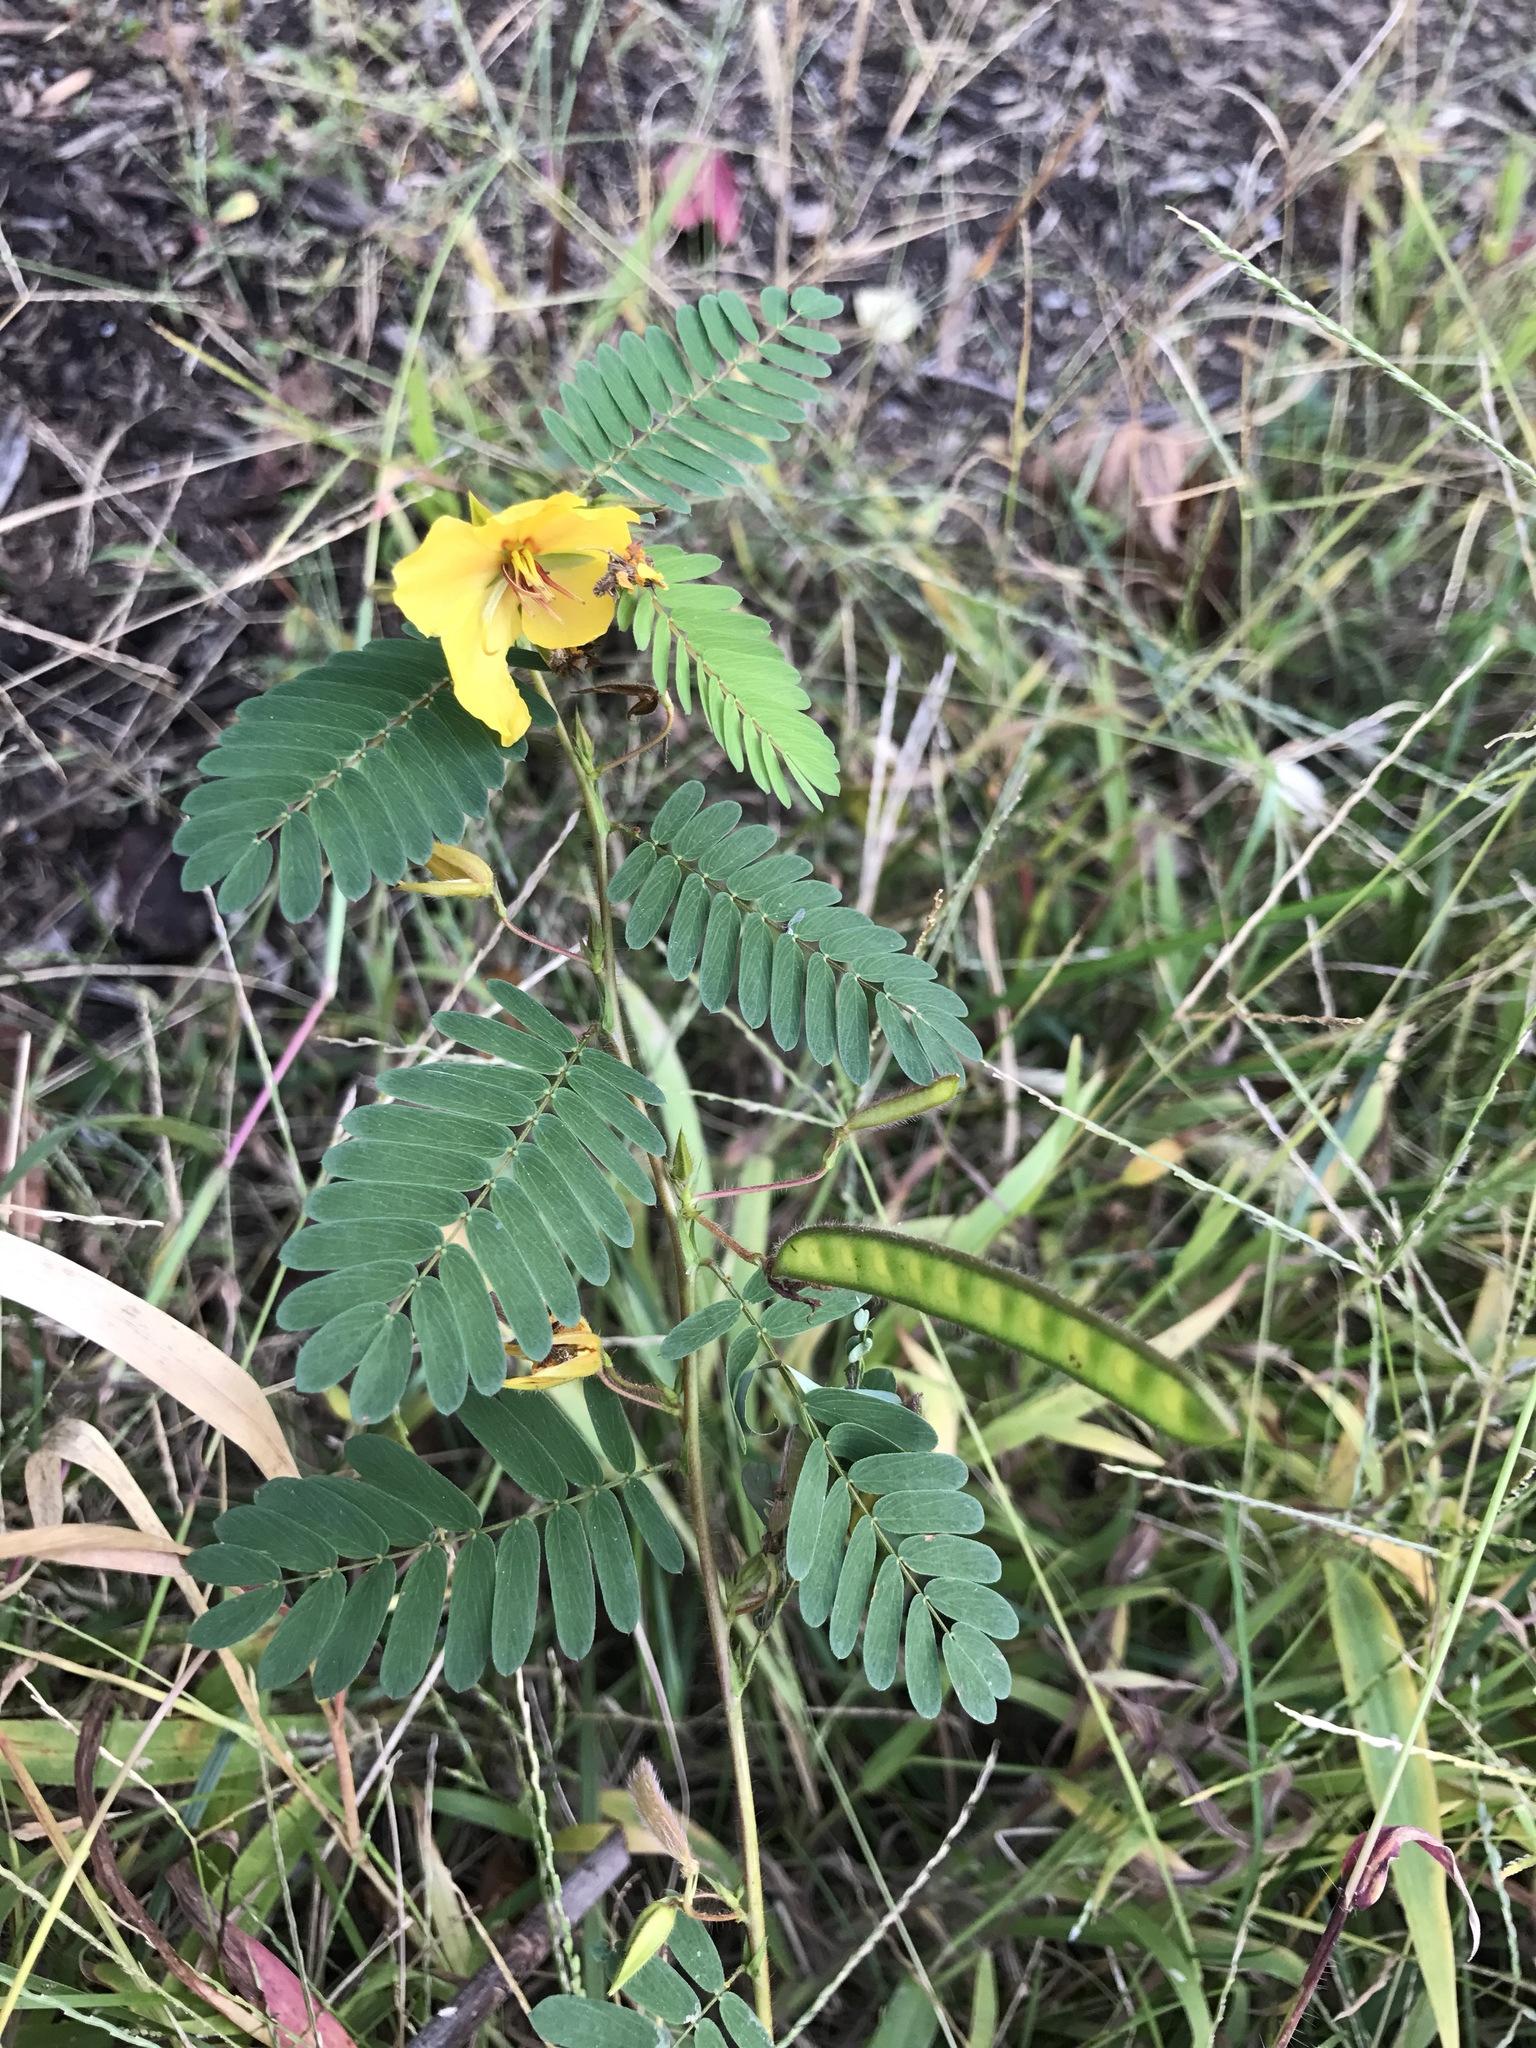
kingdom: Plantae
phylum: Tracheophyta
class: Magnoliopsida
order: Fabales
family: Fabaceae
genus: Chamaecrista
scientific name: Chamaecrista fasciculata
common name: Golden cassia
